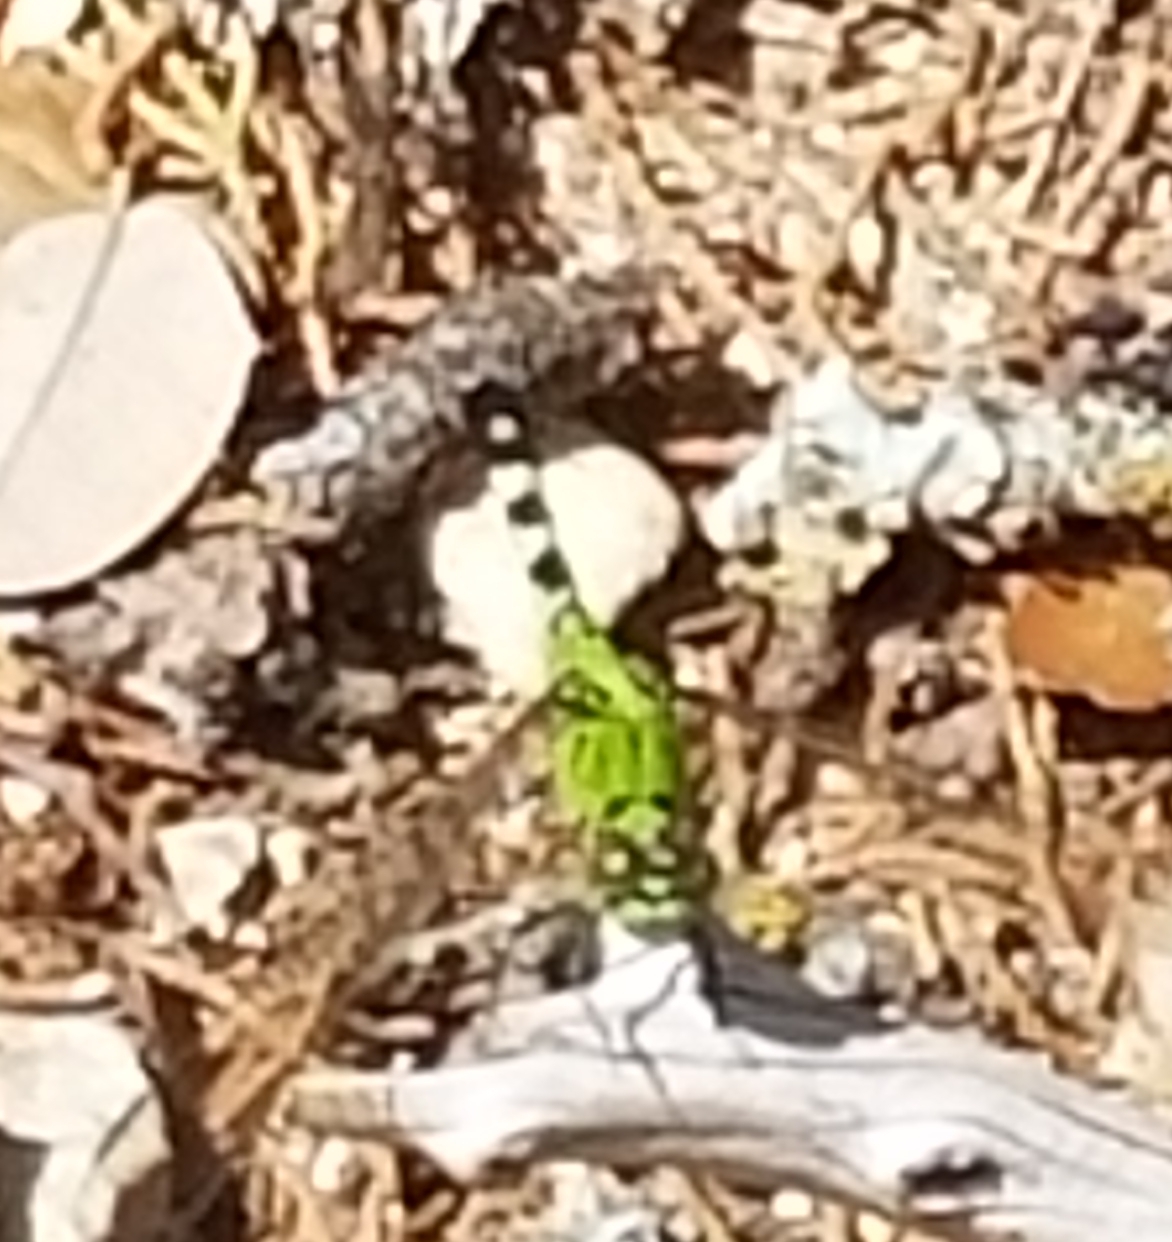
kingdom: Animalia
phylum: Arthropoda
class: Insecta
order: Odonata
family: Libellulidae
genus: Erythemis
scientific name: Erythemis simplicicollis
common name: Eastern pondhawk
